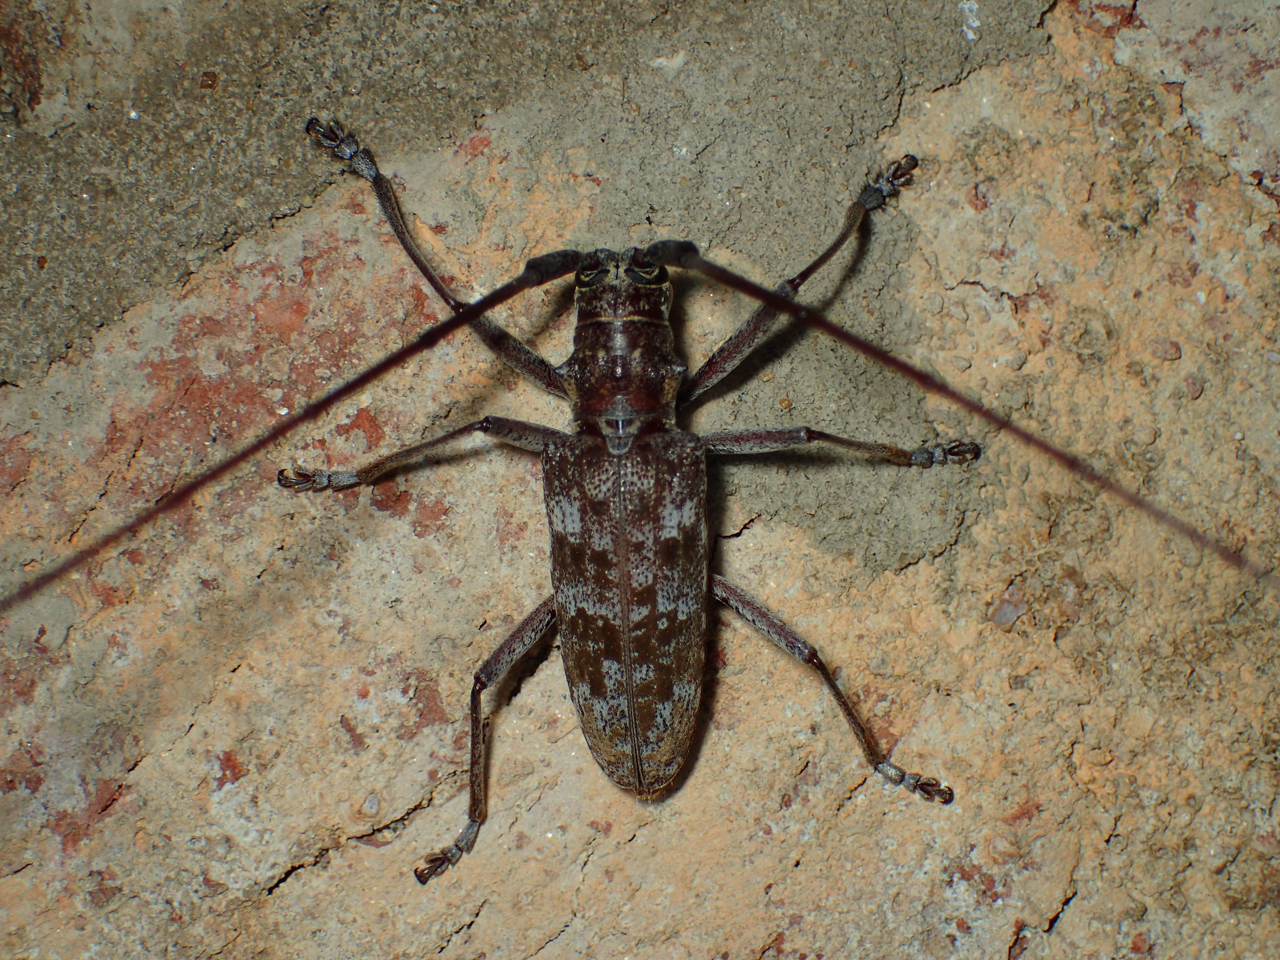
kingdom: Animalia
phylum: Arthropoda
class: Insecta
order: Coleoptera
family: Cerambycidae
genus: Monochamus
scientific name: Monochamus titillator
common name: Southern pine sawyer
